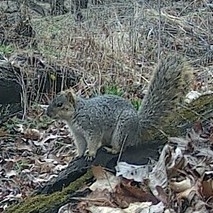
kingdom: Animalia
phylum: Chordata
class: Mammalia
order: Rodentia
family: Sciuridae
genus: Sciurus
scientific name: Sciurus niger
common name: Fox squirrel
